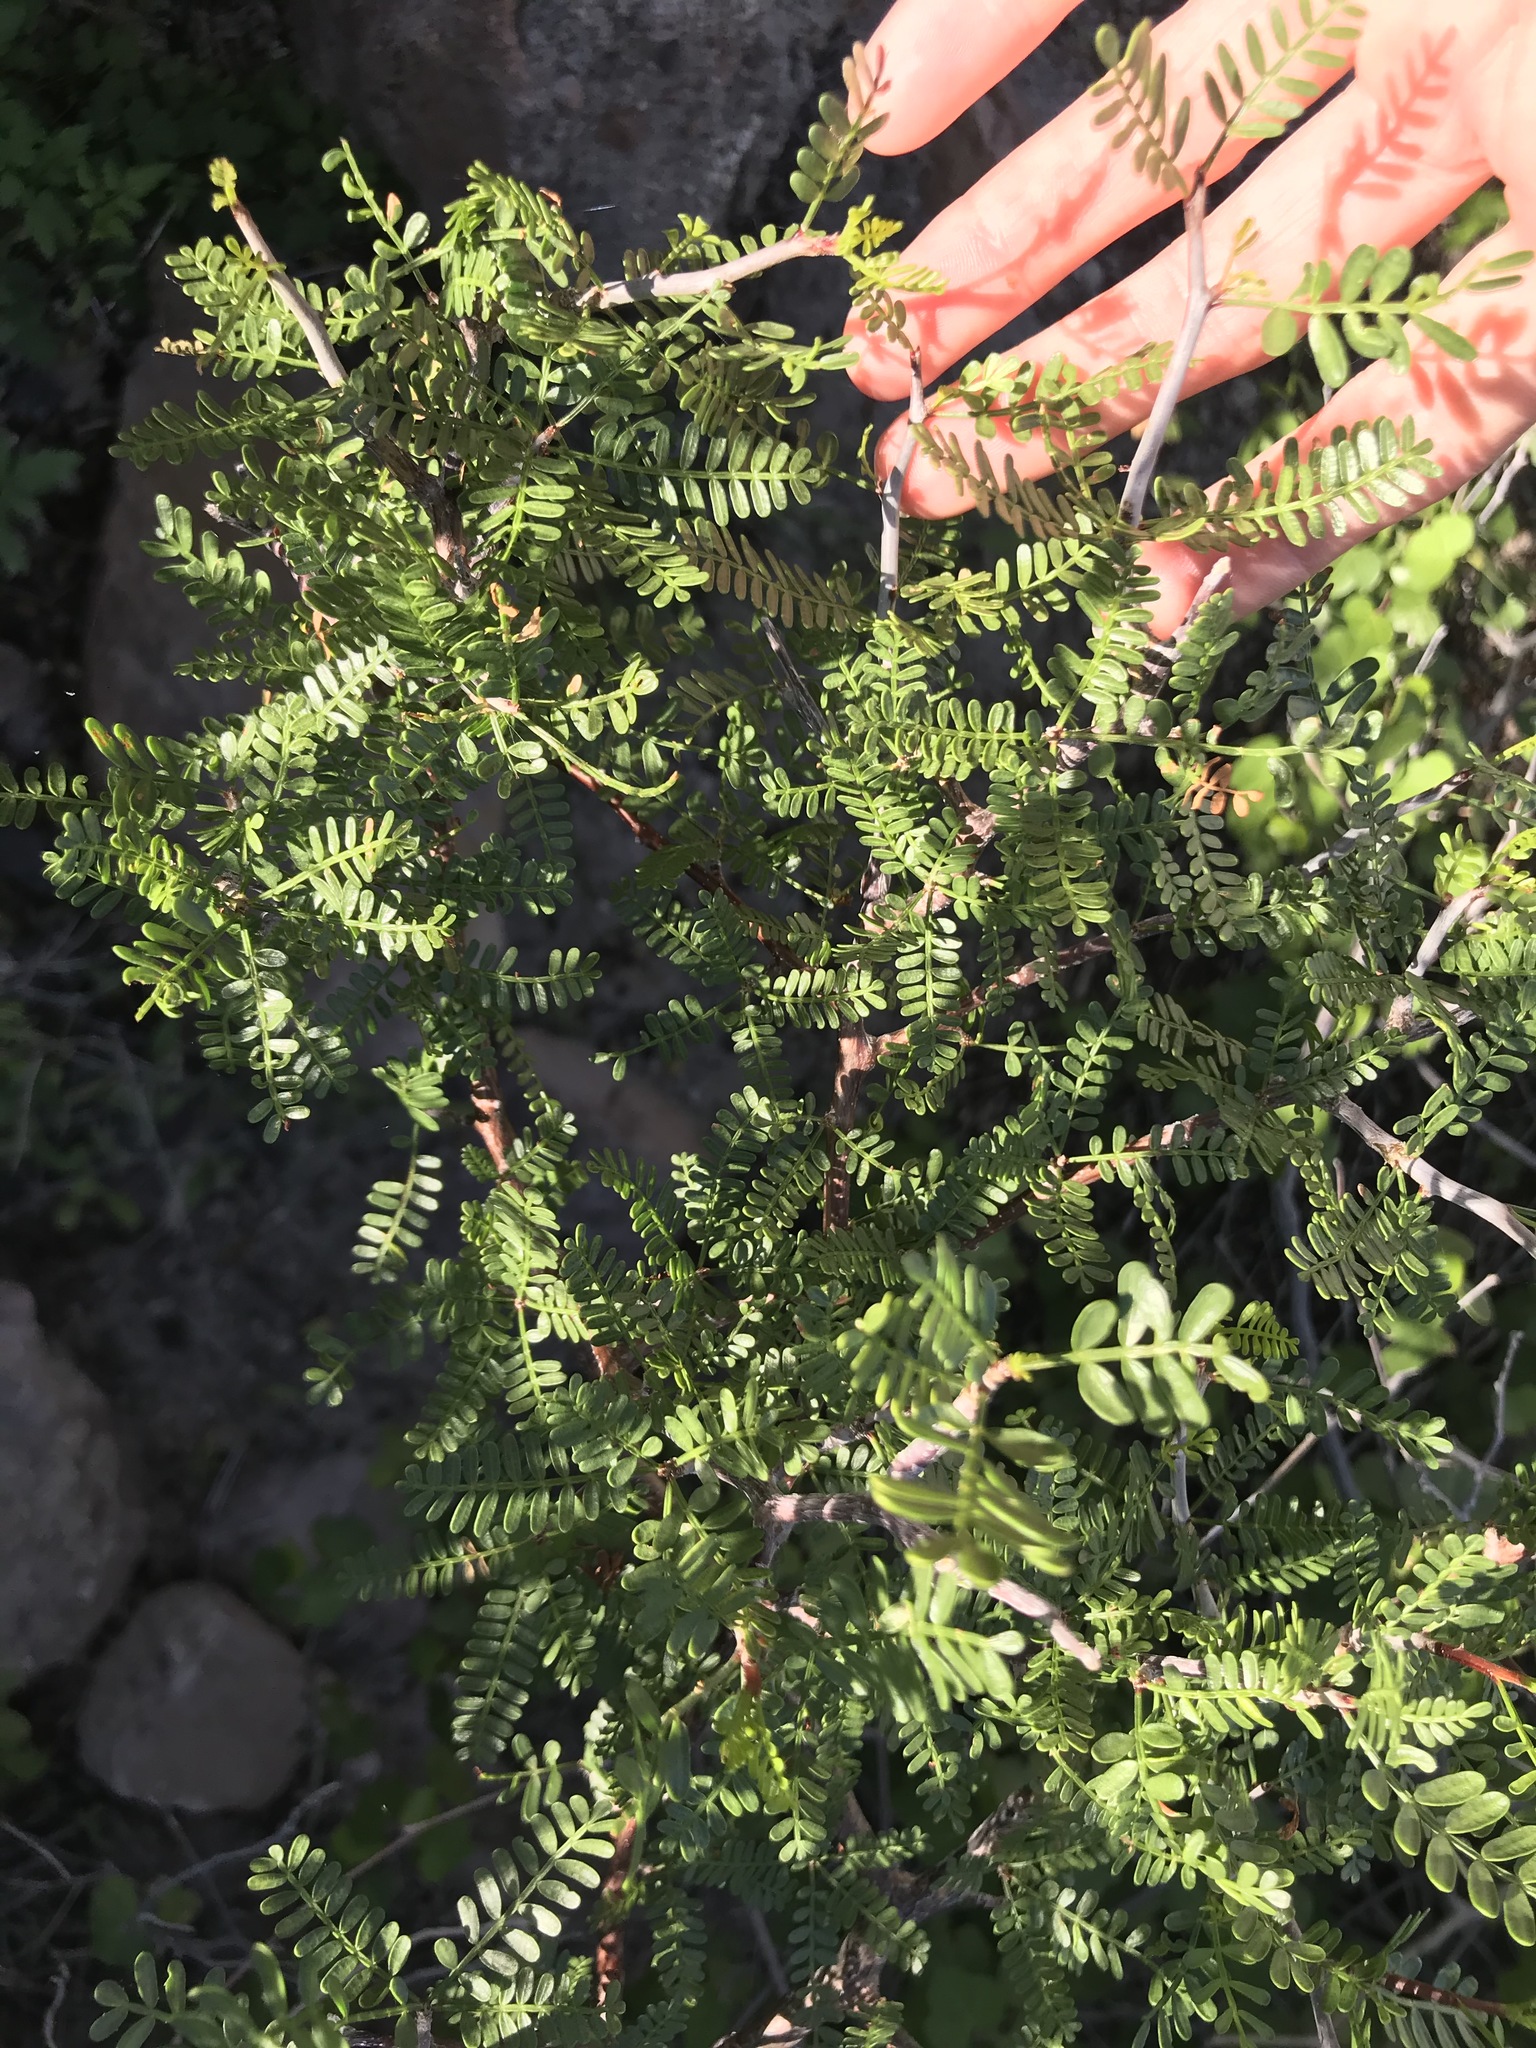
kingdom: Plantae
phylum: Tracheophyta
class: Magnoliopsida
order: Sapindales
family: Burseraceae
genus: Bursera
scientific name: Bursera microphylla
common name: Elephant tree
